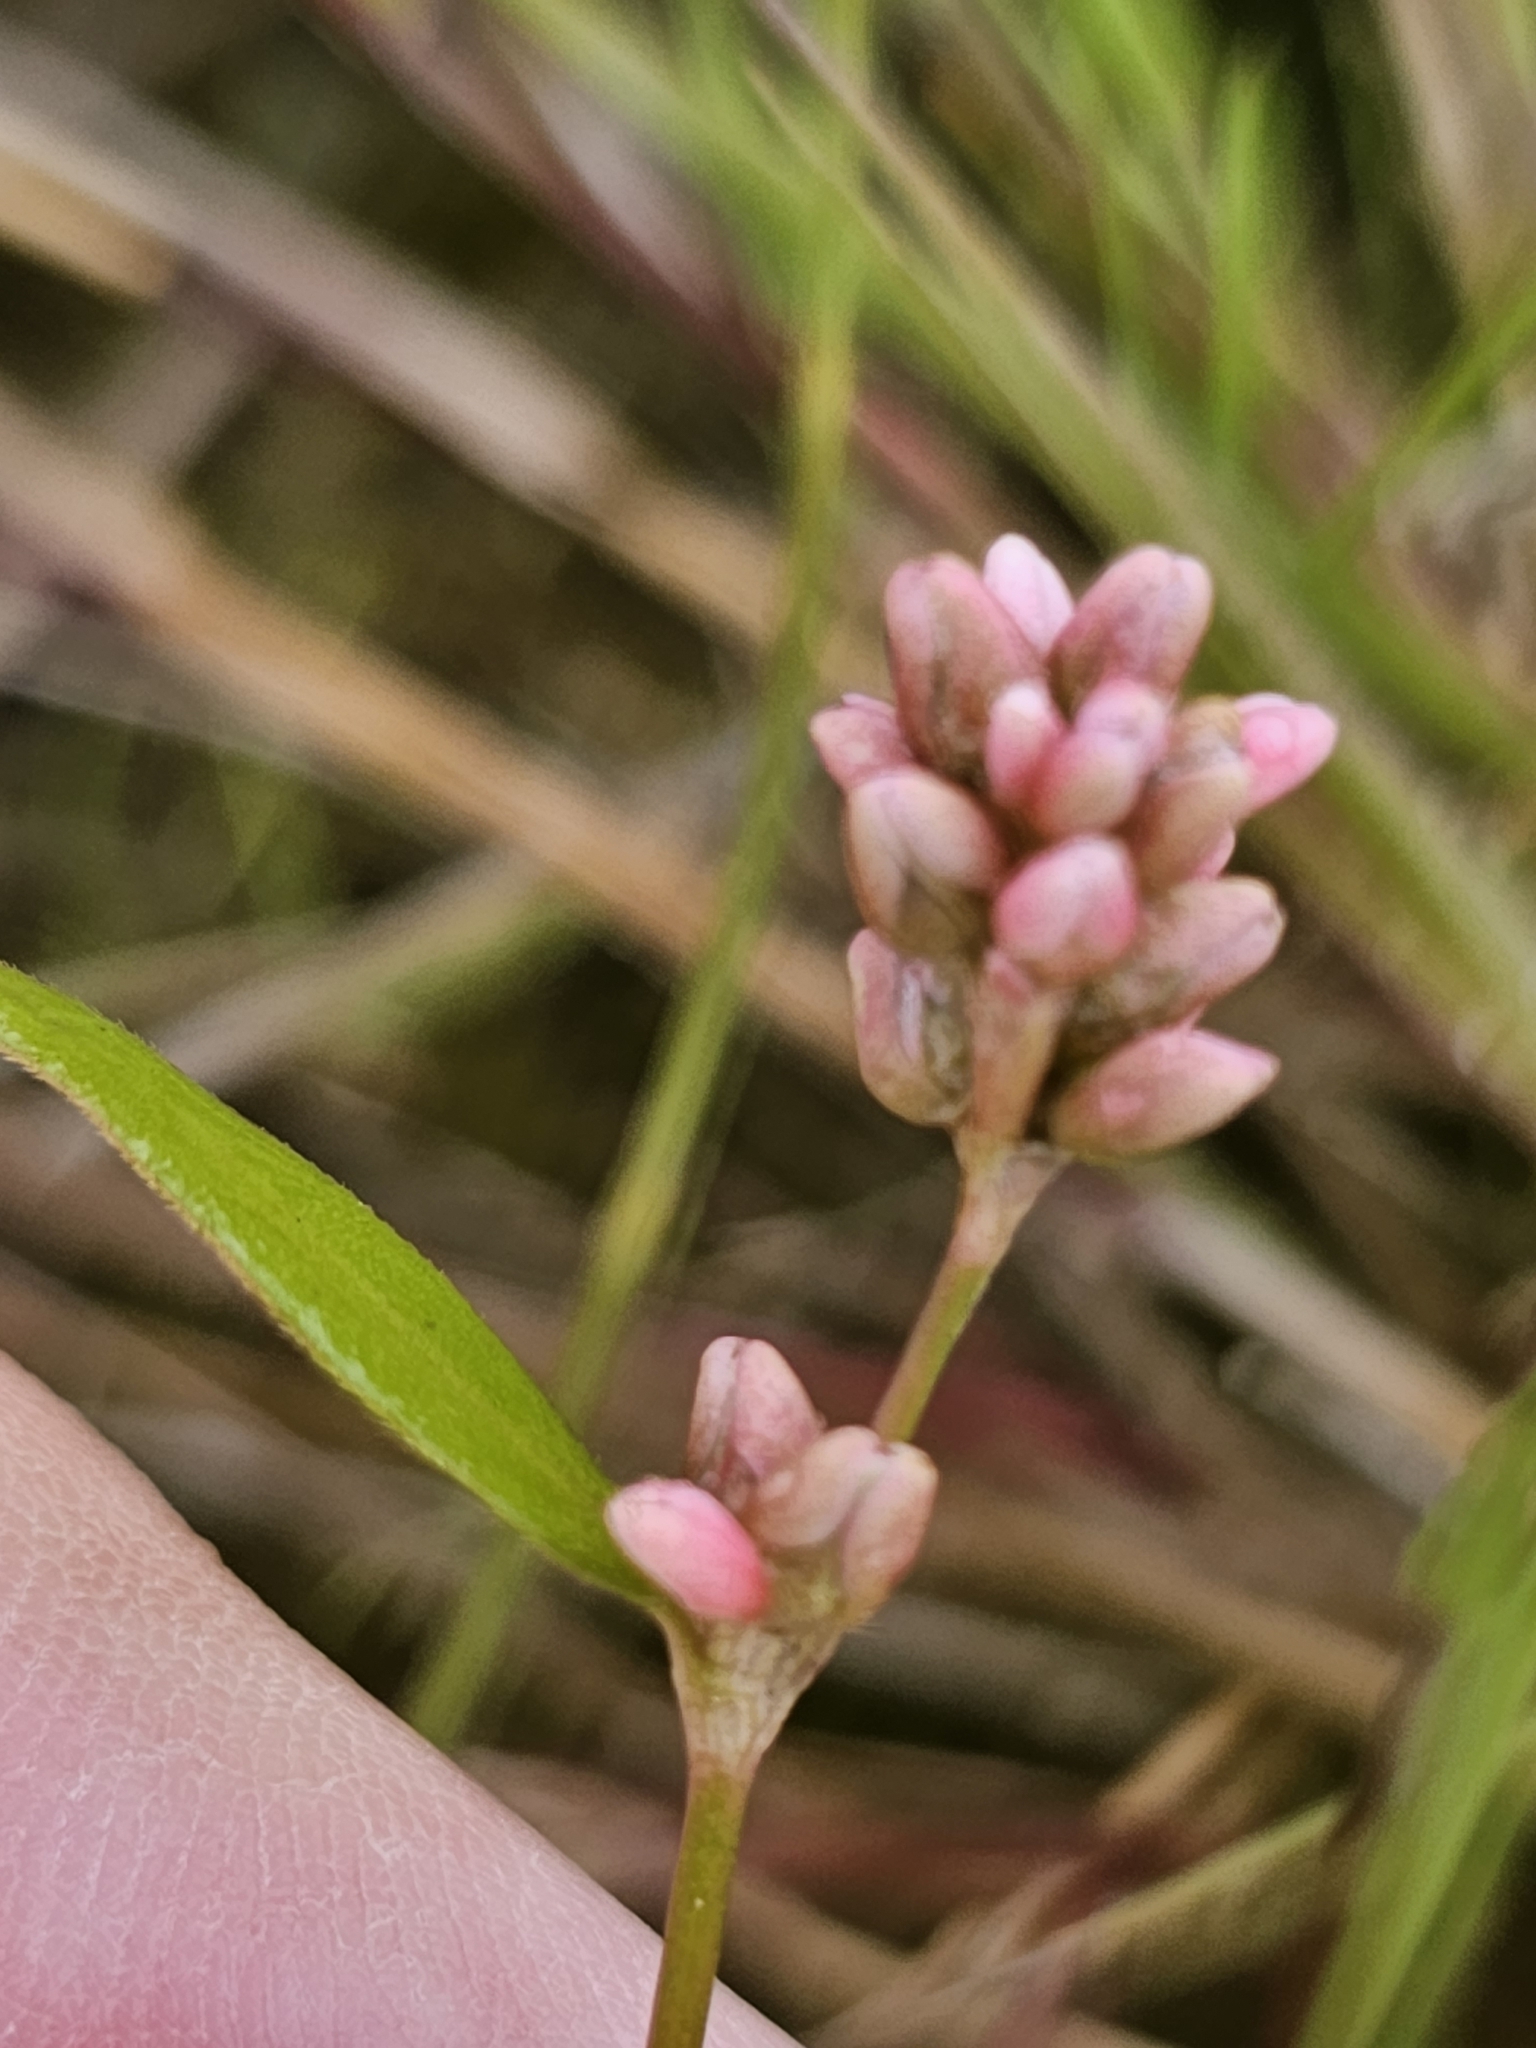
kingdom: Plantae
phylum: Tracheophyta
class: Magnoliopsida
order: Caryophyllales
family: Polygonaceae
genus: Persicaria
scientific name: Persicaria maculosa
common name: Redshank
